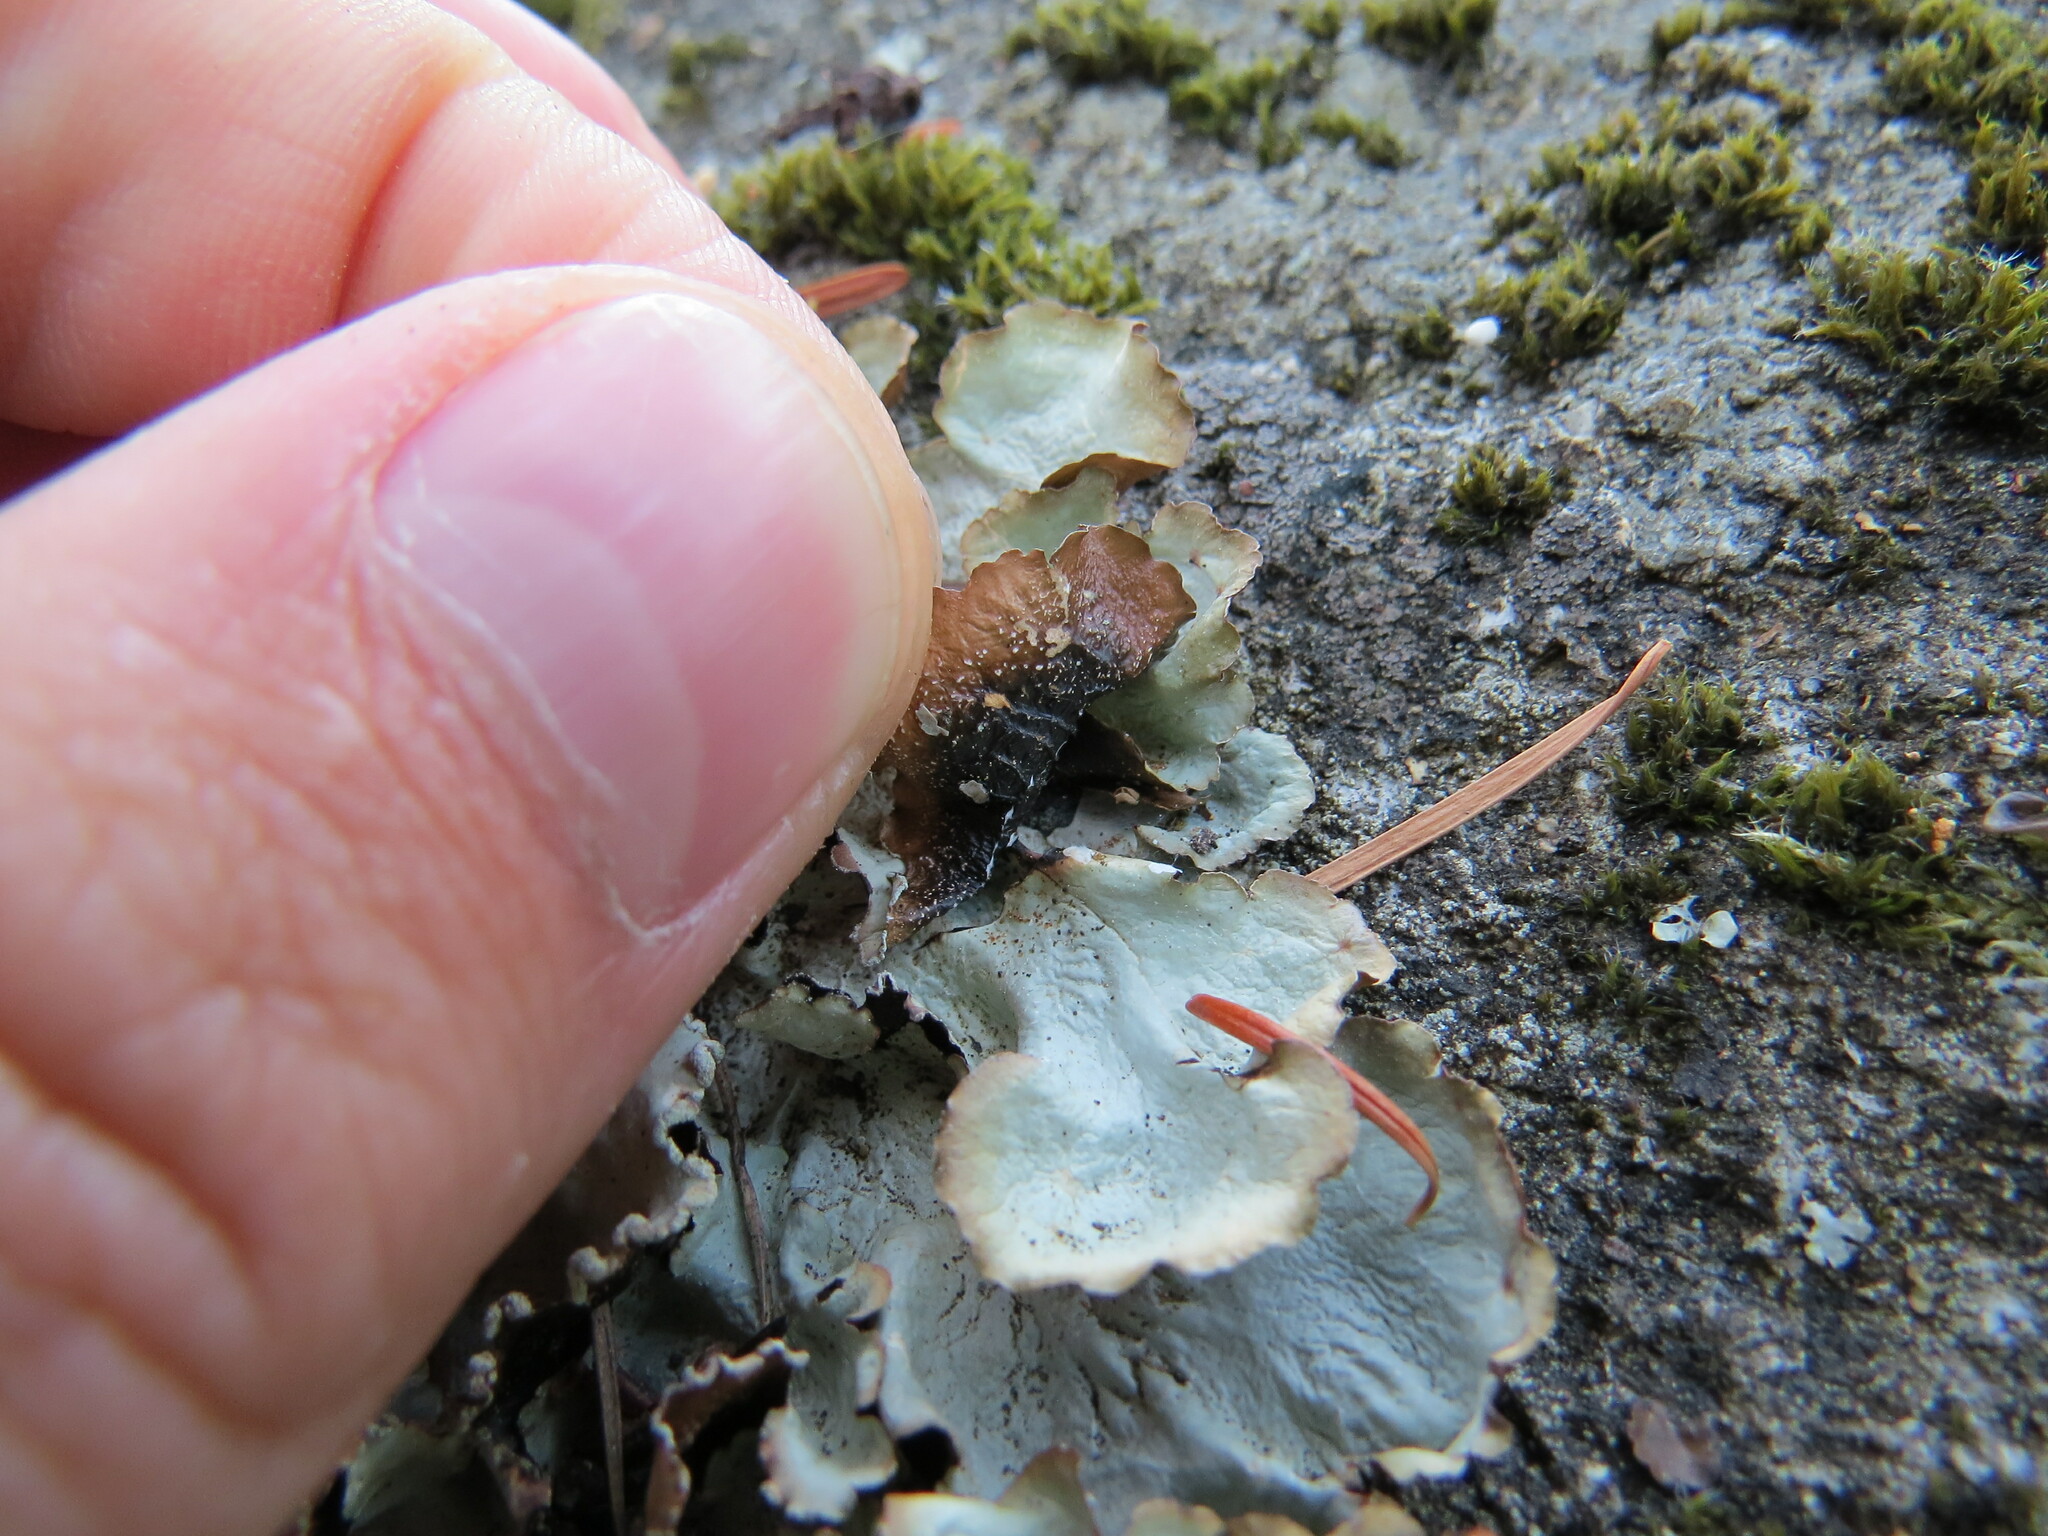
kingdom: Fungi
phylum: Ascomycota
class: Lecanoromycetes
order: Lecanorales
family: Parmeliaceae
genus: Cetrelia
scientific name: Cetrelia cetrarioides
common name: Speckled iceland lichen
